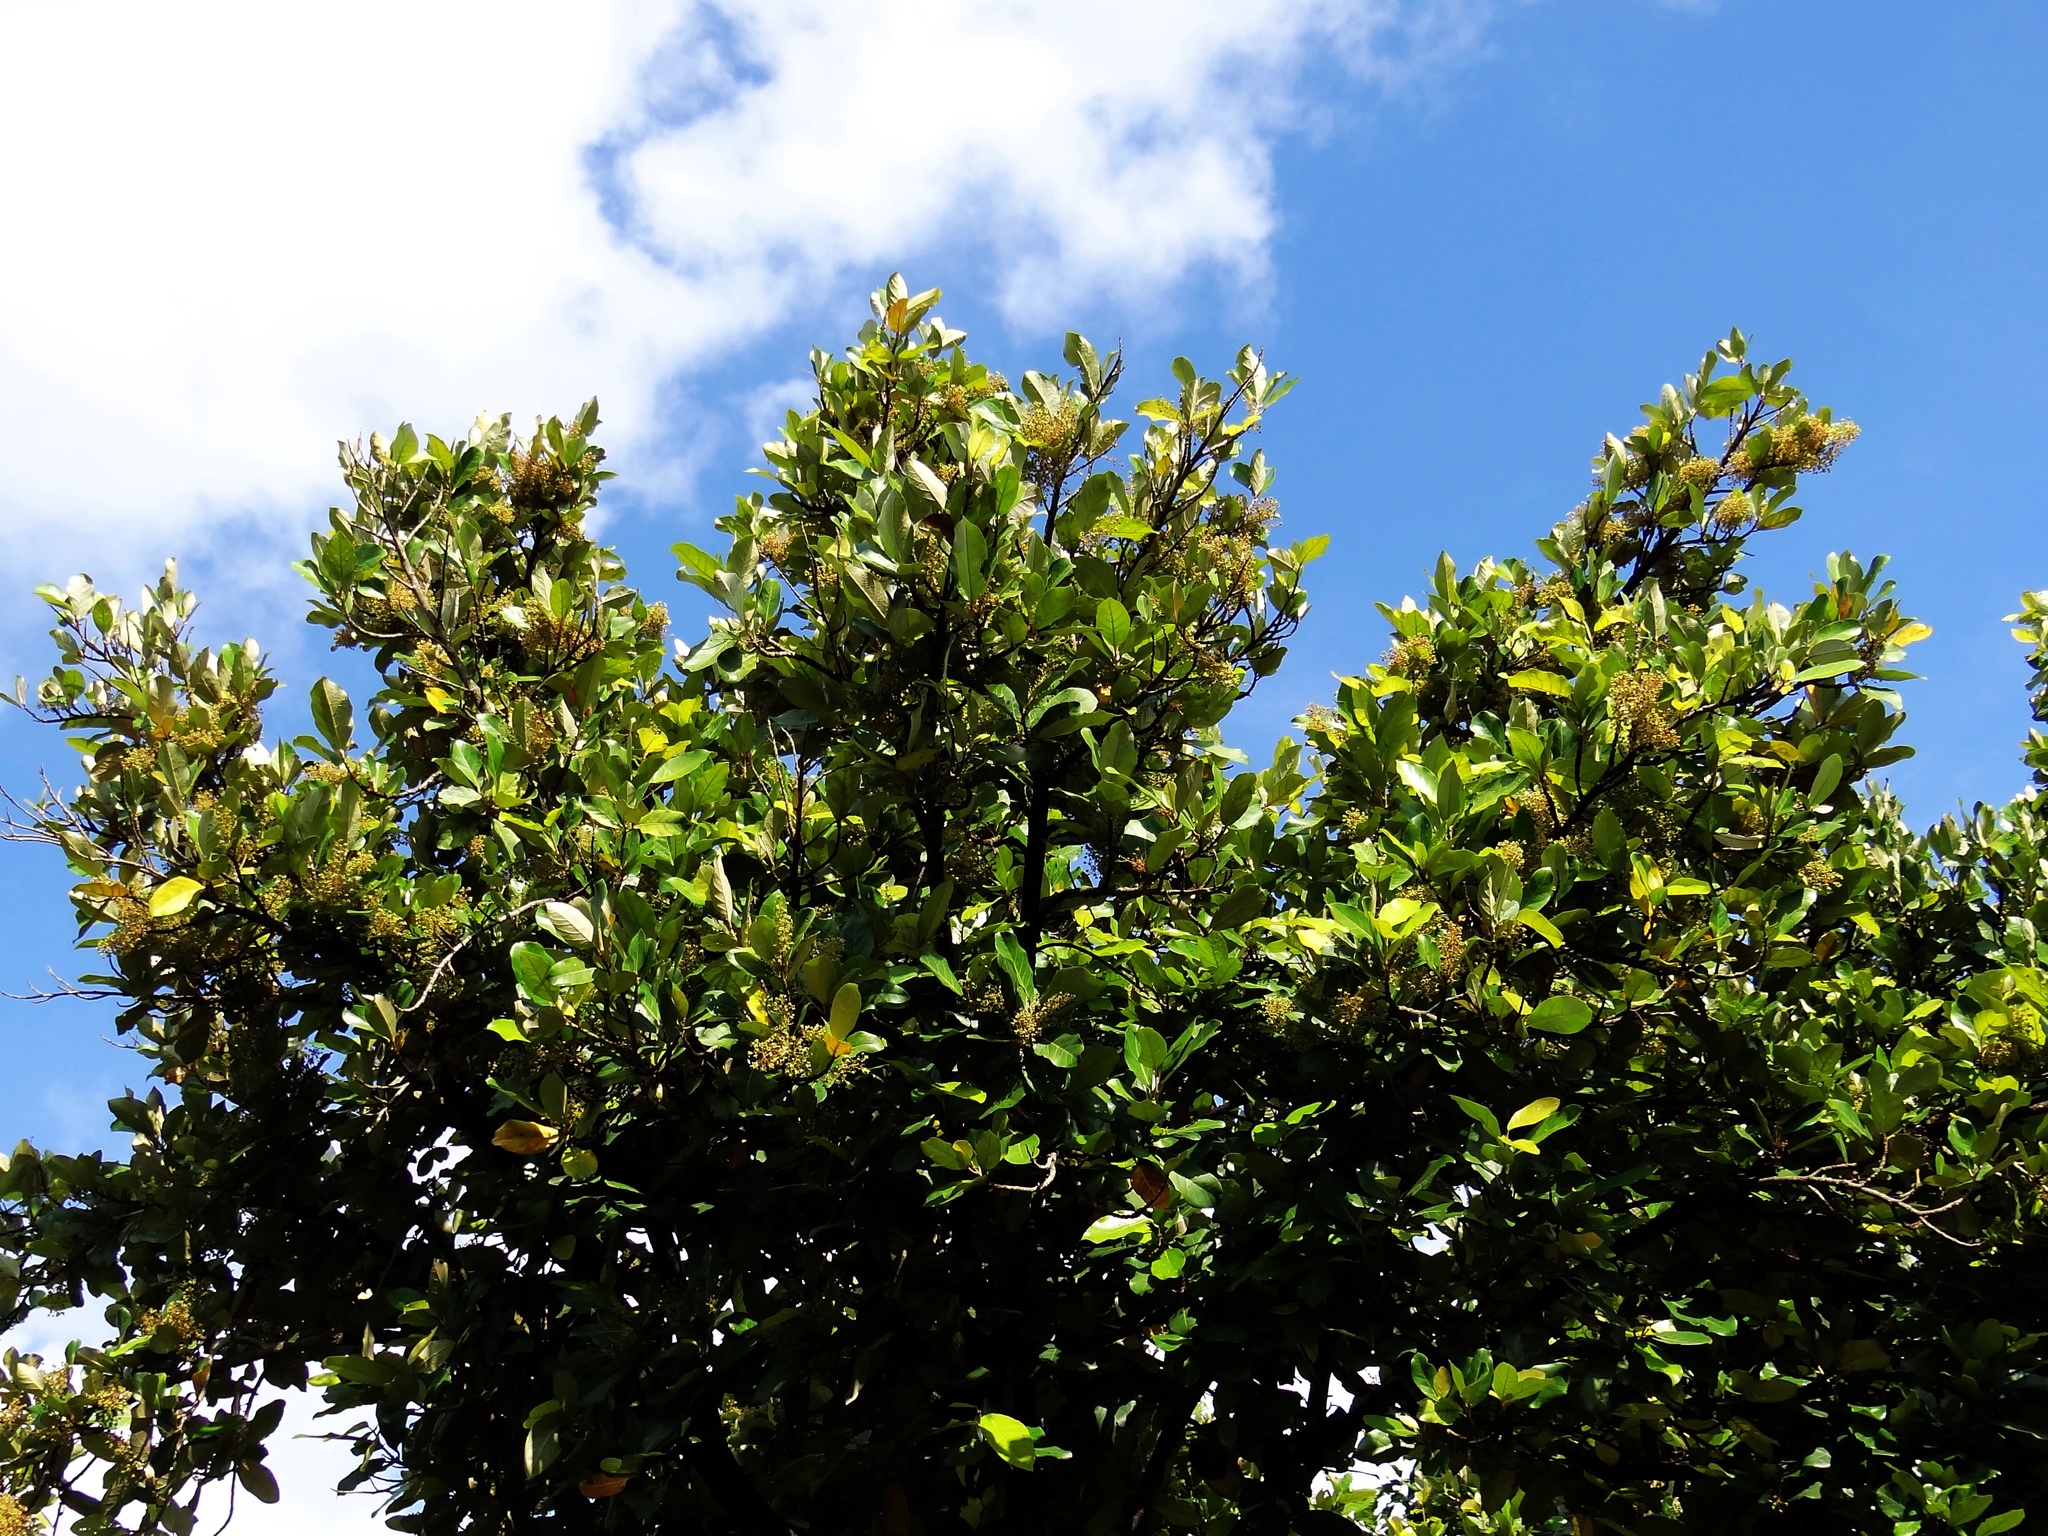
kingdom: Plantae
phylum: Tracheophyta
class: Magnoliopsida
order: Malvales
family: Malvaceae
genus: Heritiera
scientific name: Heritiera littoralis
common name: Looking-glass mangrove
